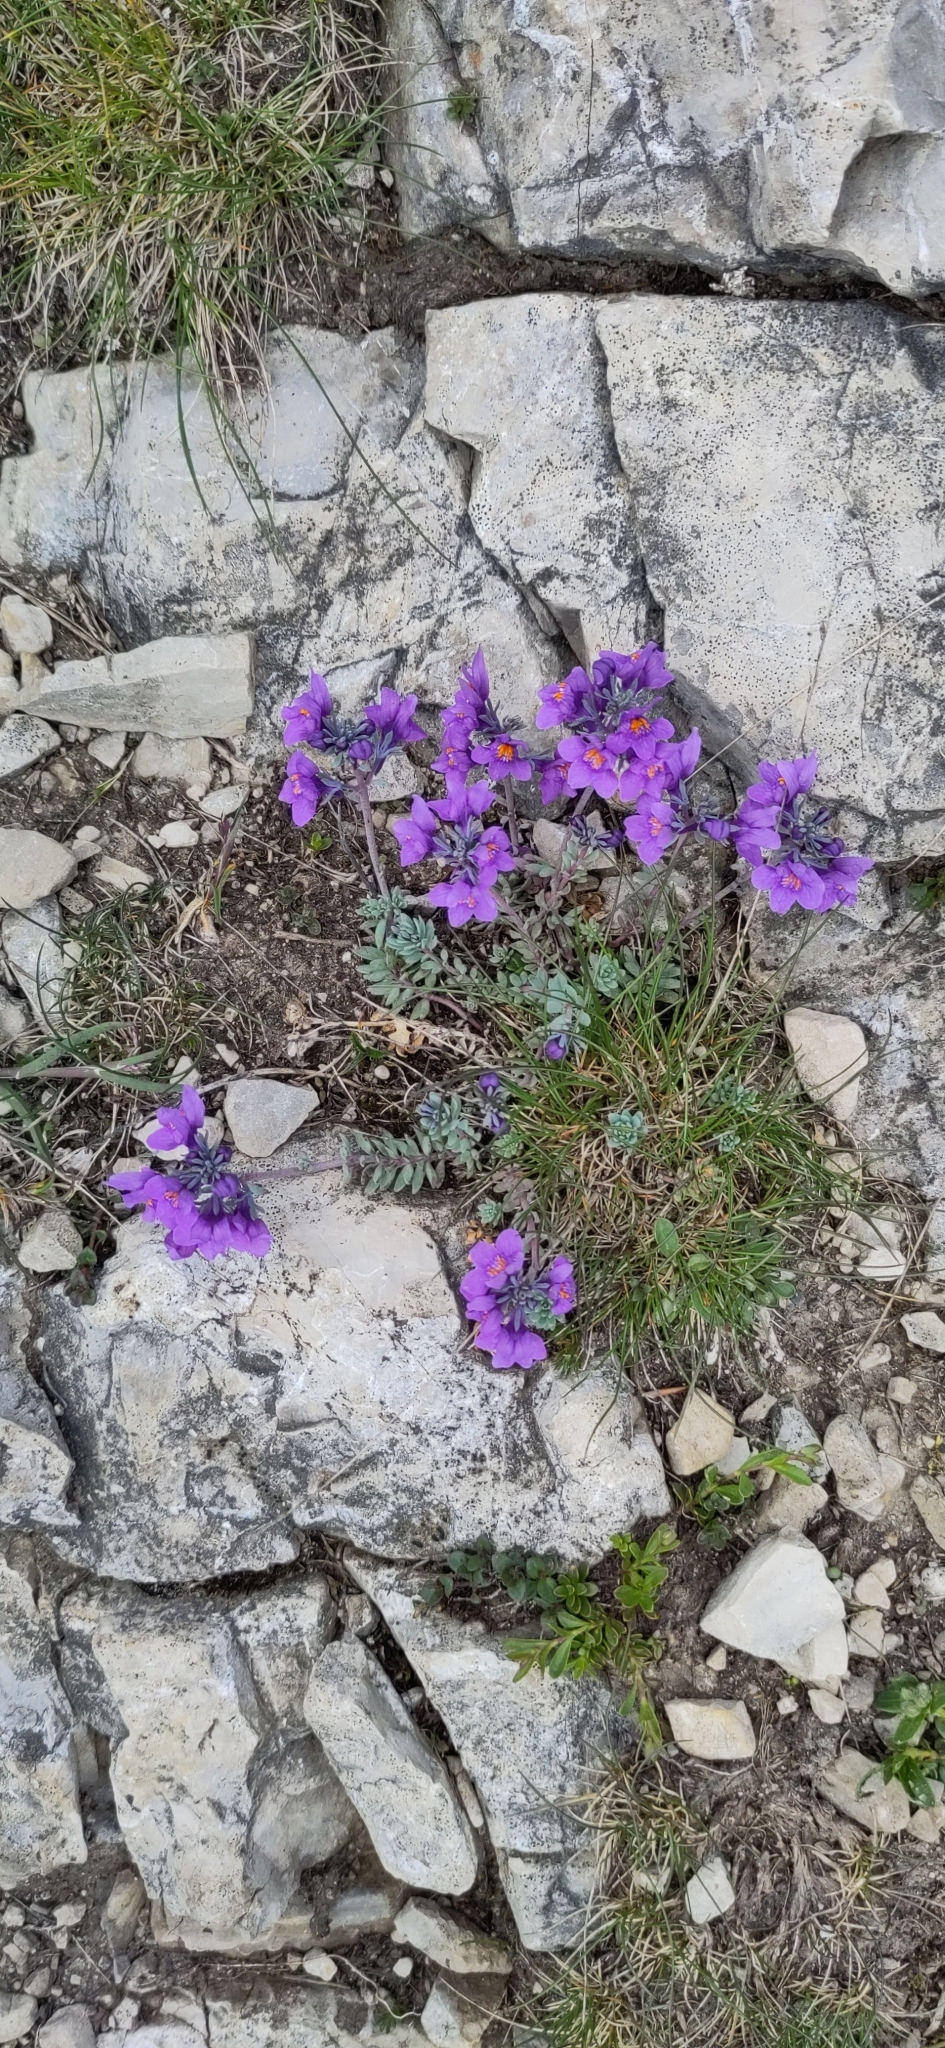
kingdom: Plantae
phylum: Tracheophyta
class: Magnoliopsida
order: Lamiales
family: Plantaginaceae
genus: Linaria
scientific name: Linaria alpina
